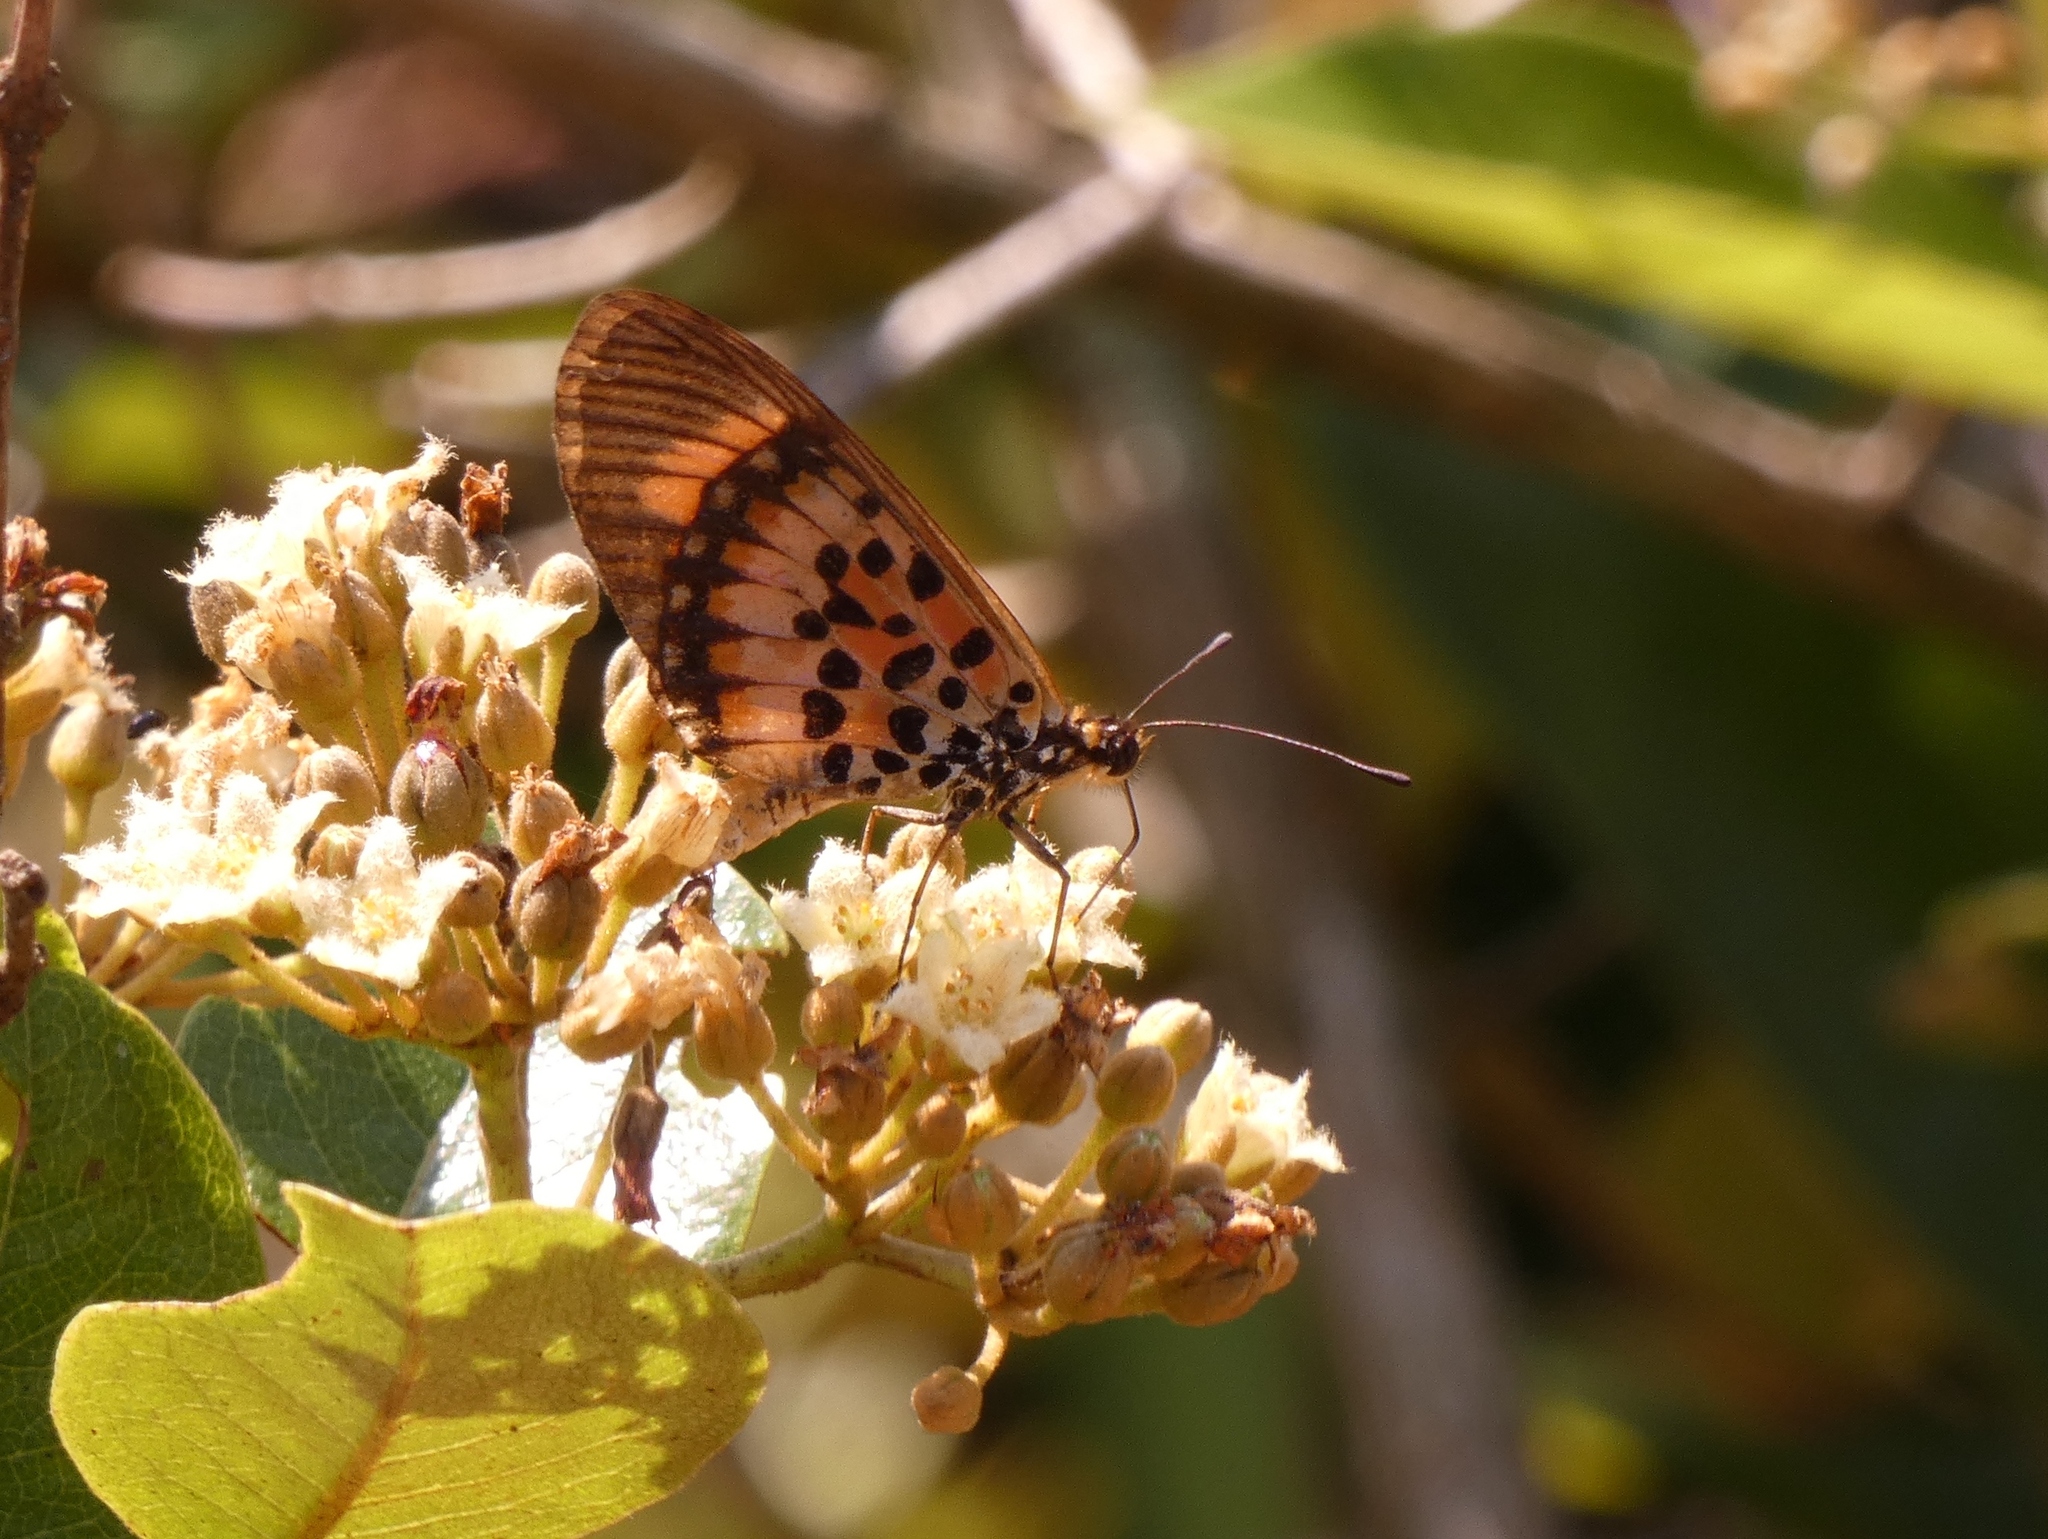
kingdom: Animalia
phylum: Arthropoda
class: Insecta
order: Lepidoptera
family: Nymphalidae
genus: Rubraea
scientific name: Rubraea
